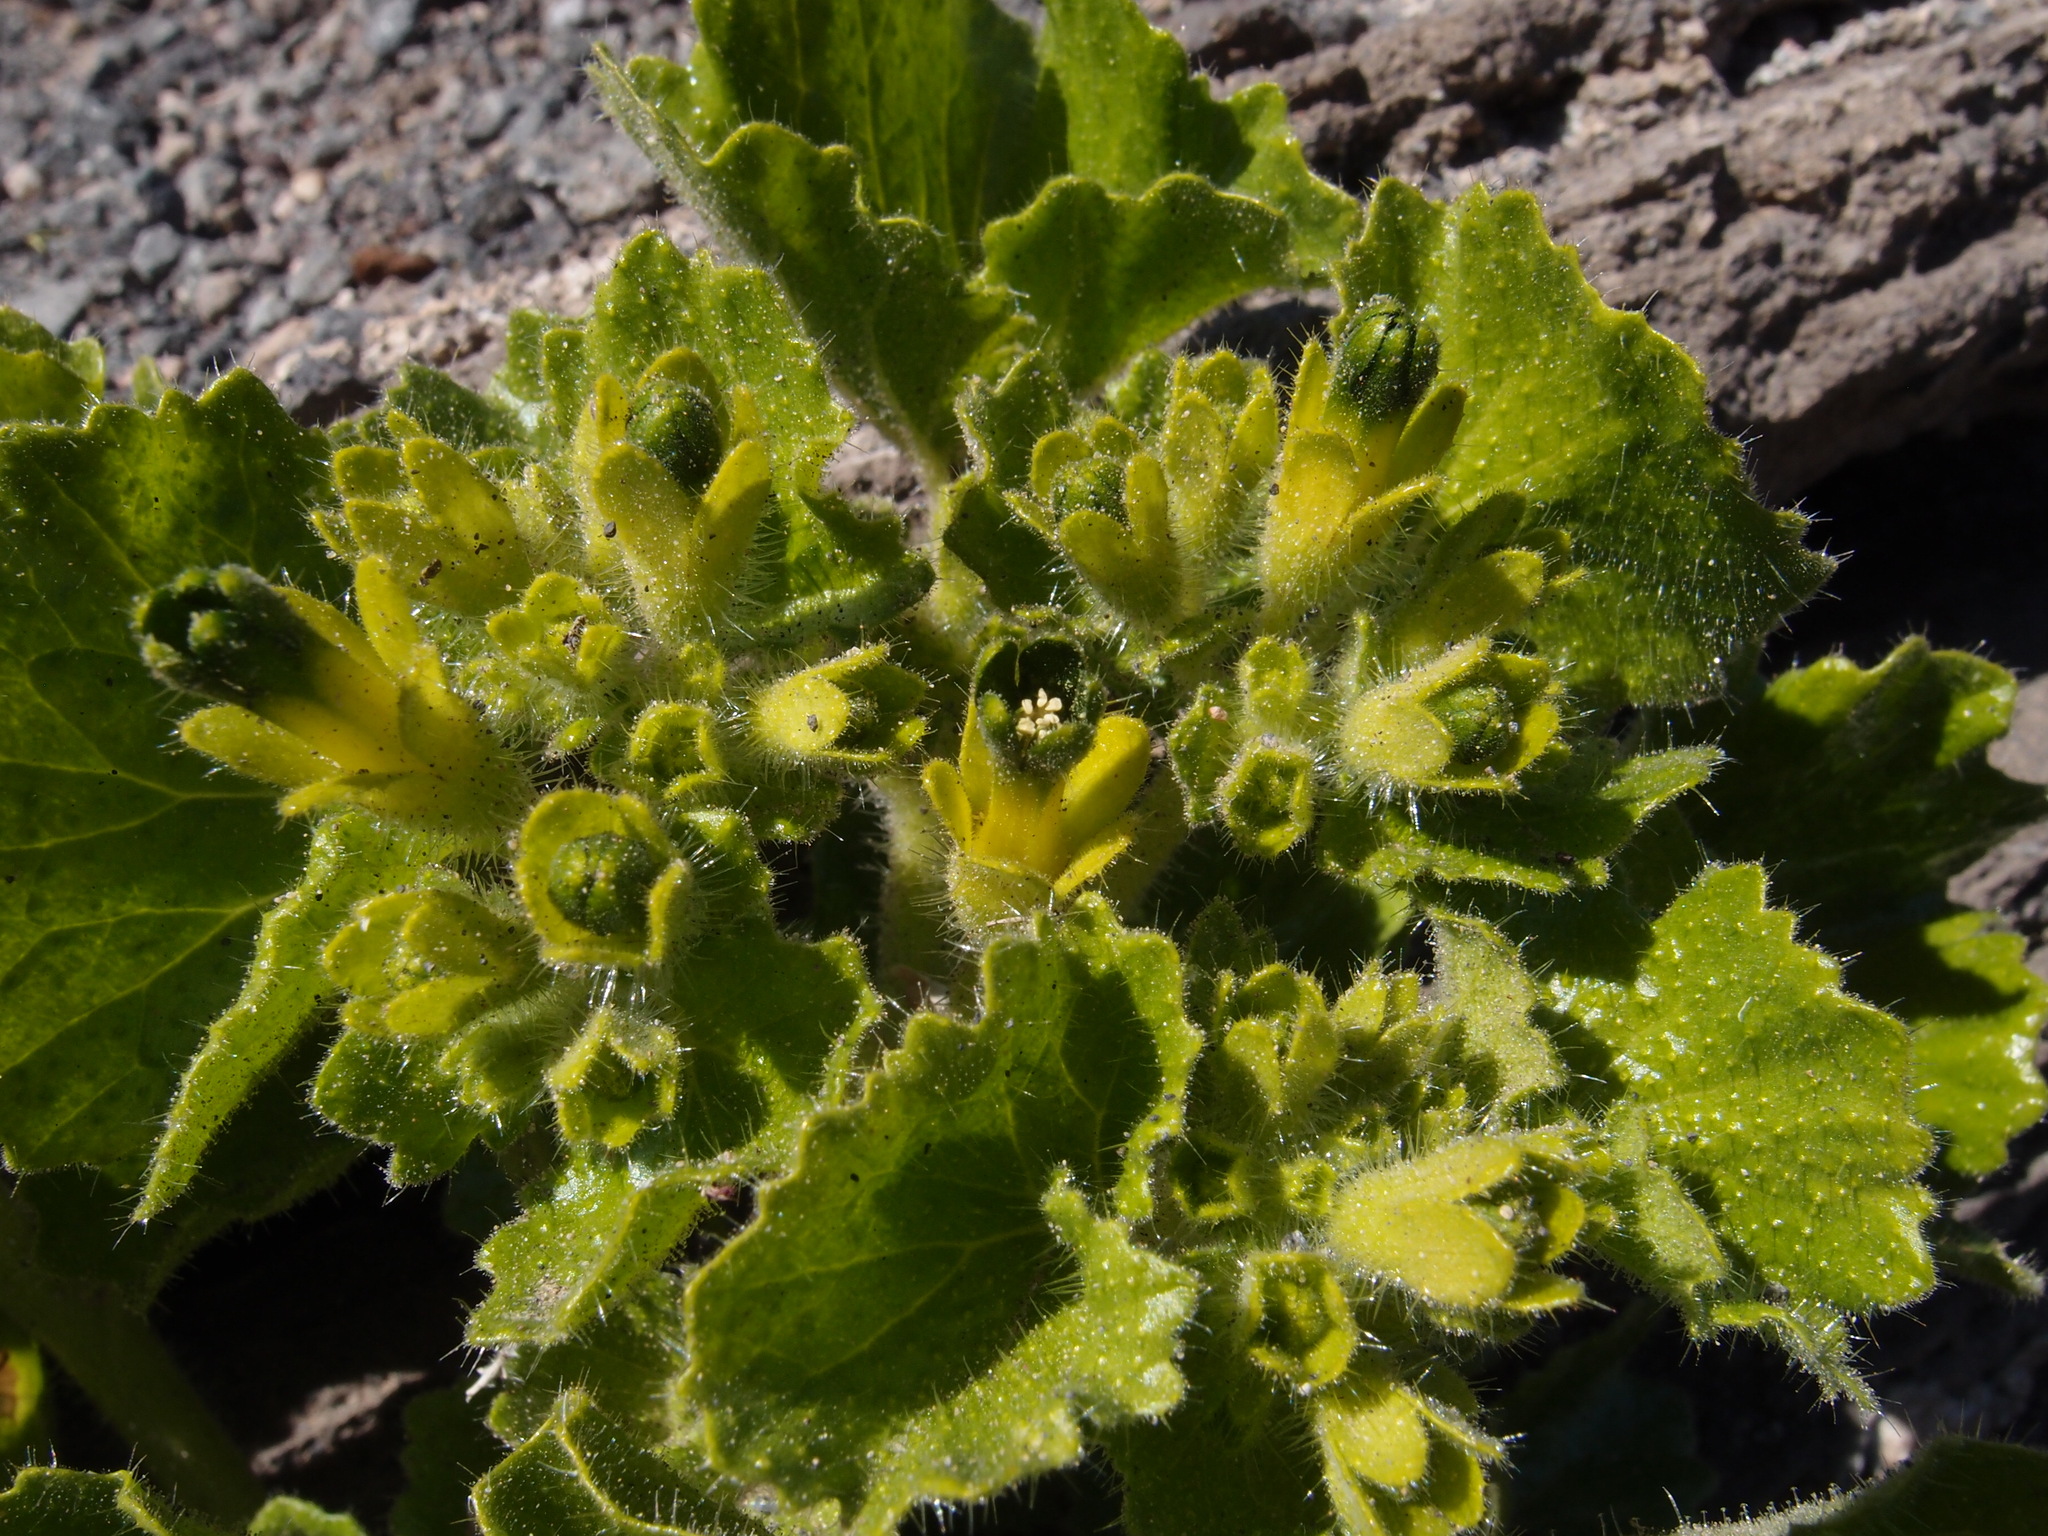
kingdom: Plantae
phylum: Tracheophyta
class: Magnoliopsida
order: Cornales
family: Loasaceae
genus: Eucnide
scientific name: Eucnide rupestris
